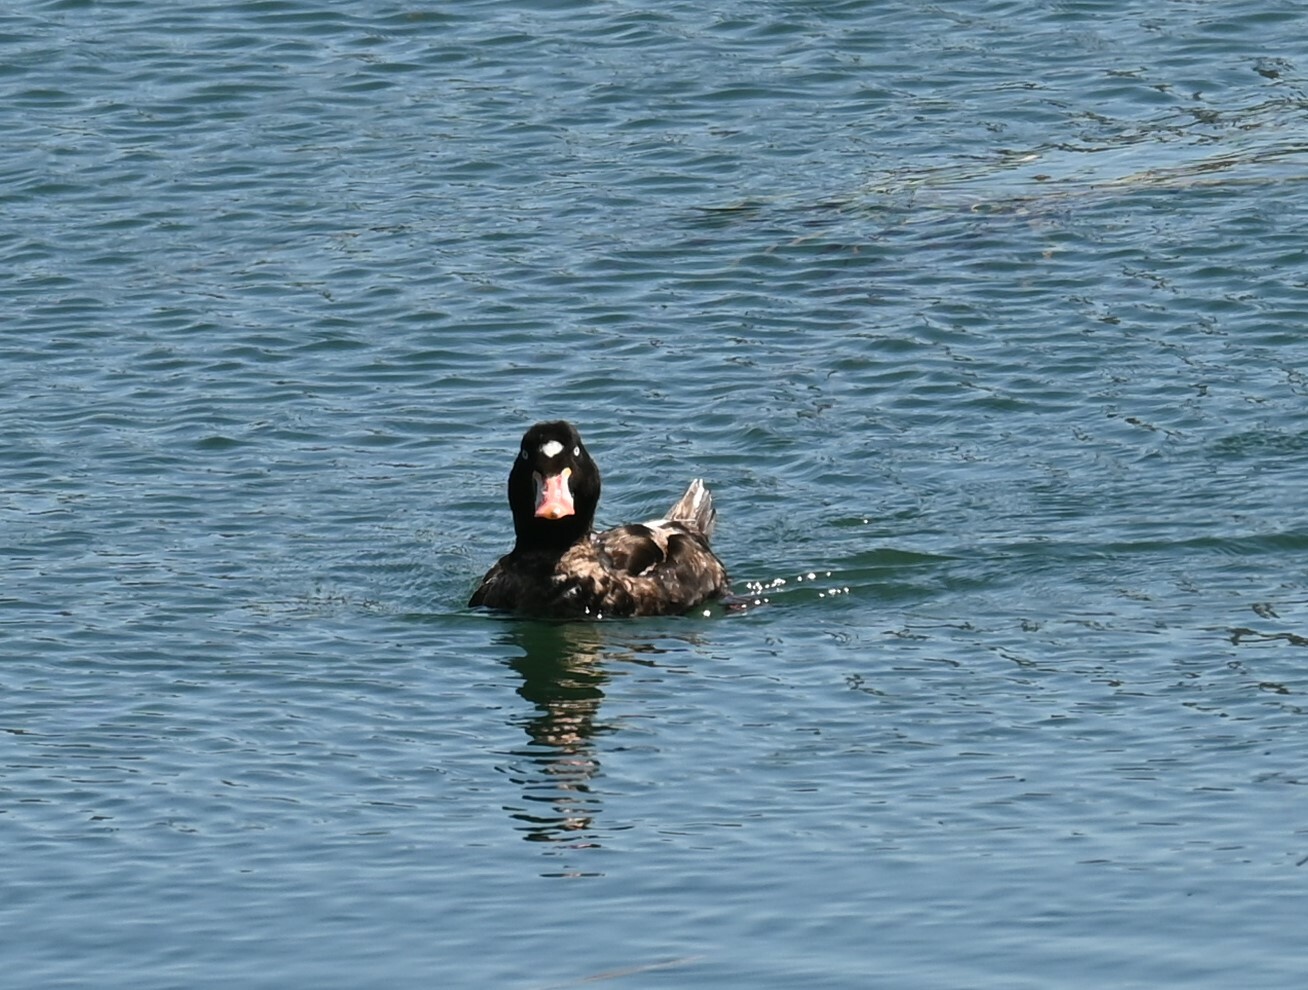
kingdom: Animalia
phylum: Chordata
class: Aves
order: Anseriformes
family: Anatidae
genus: Melanitta
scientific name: Melanitta perspicillata
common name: Surf scoter
